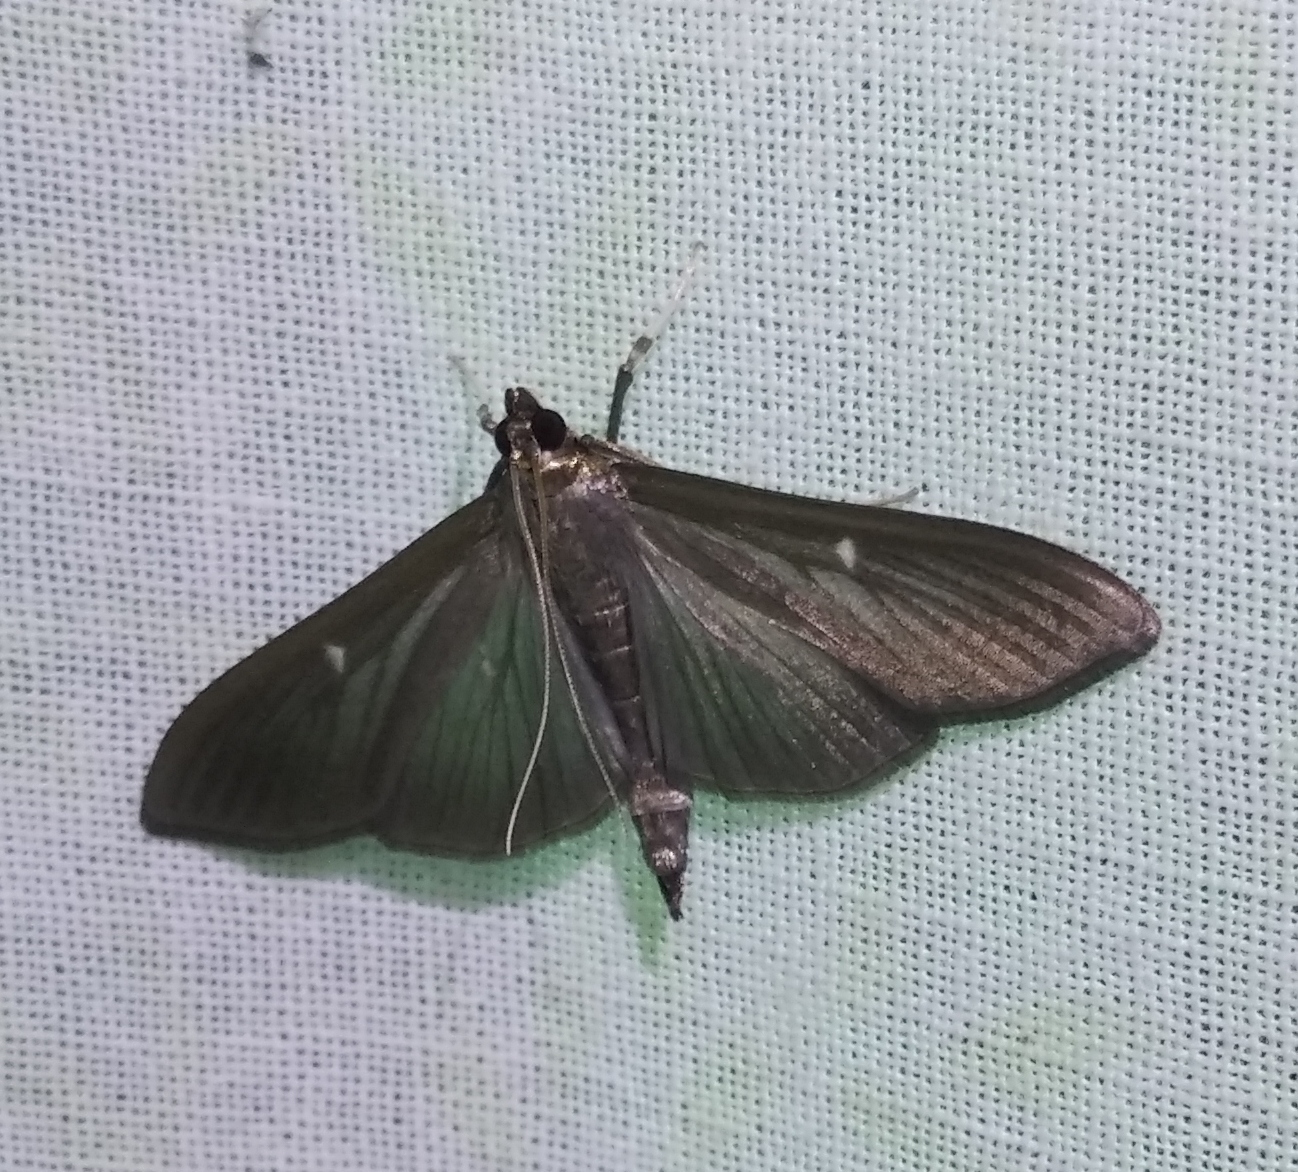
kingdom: Animalia
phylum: Arthropoda
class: Insecta
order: Lepidoptera
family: Crambidae
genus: Cydalima
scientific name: Cydalima perspectalis
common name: Box tree moth
